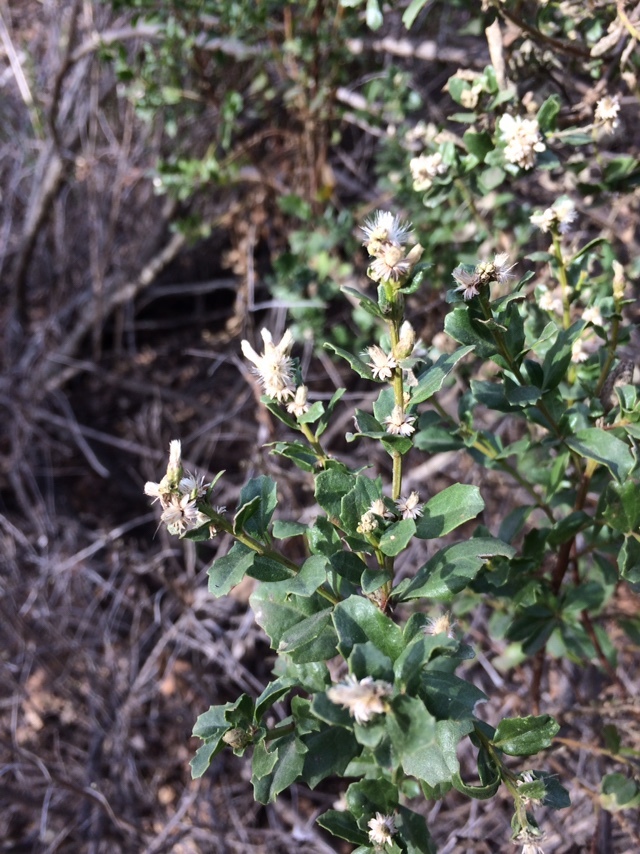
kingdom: Plantae
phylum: Tracheophyta
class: Magnoliopsida
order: Asterales
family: Asteraceae
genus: Baccharis
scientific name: Baccharis pilularis
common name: Coyotebrush
